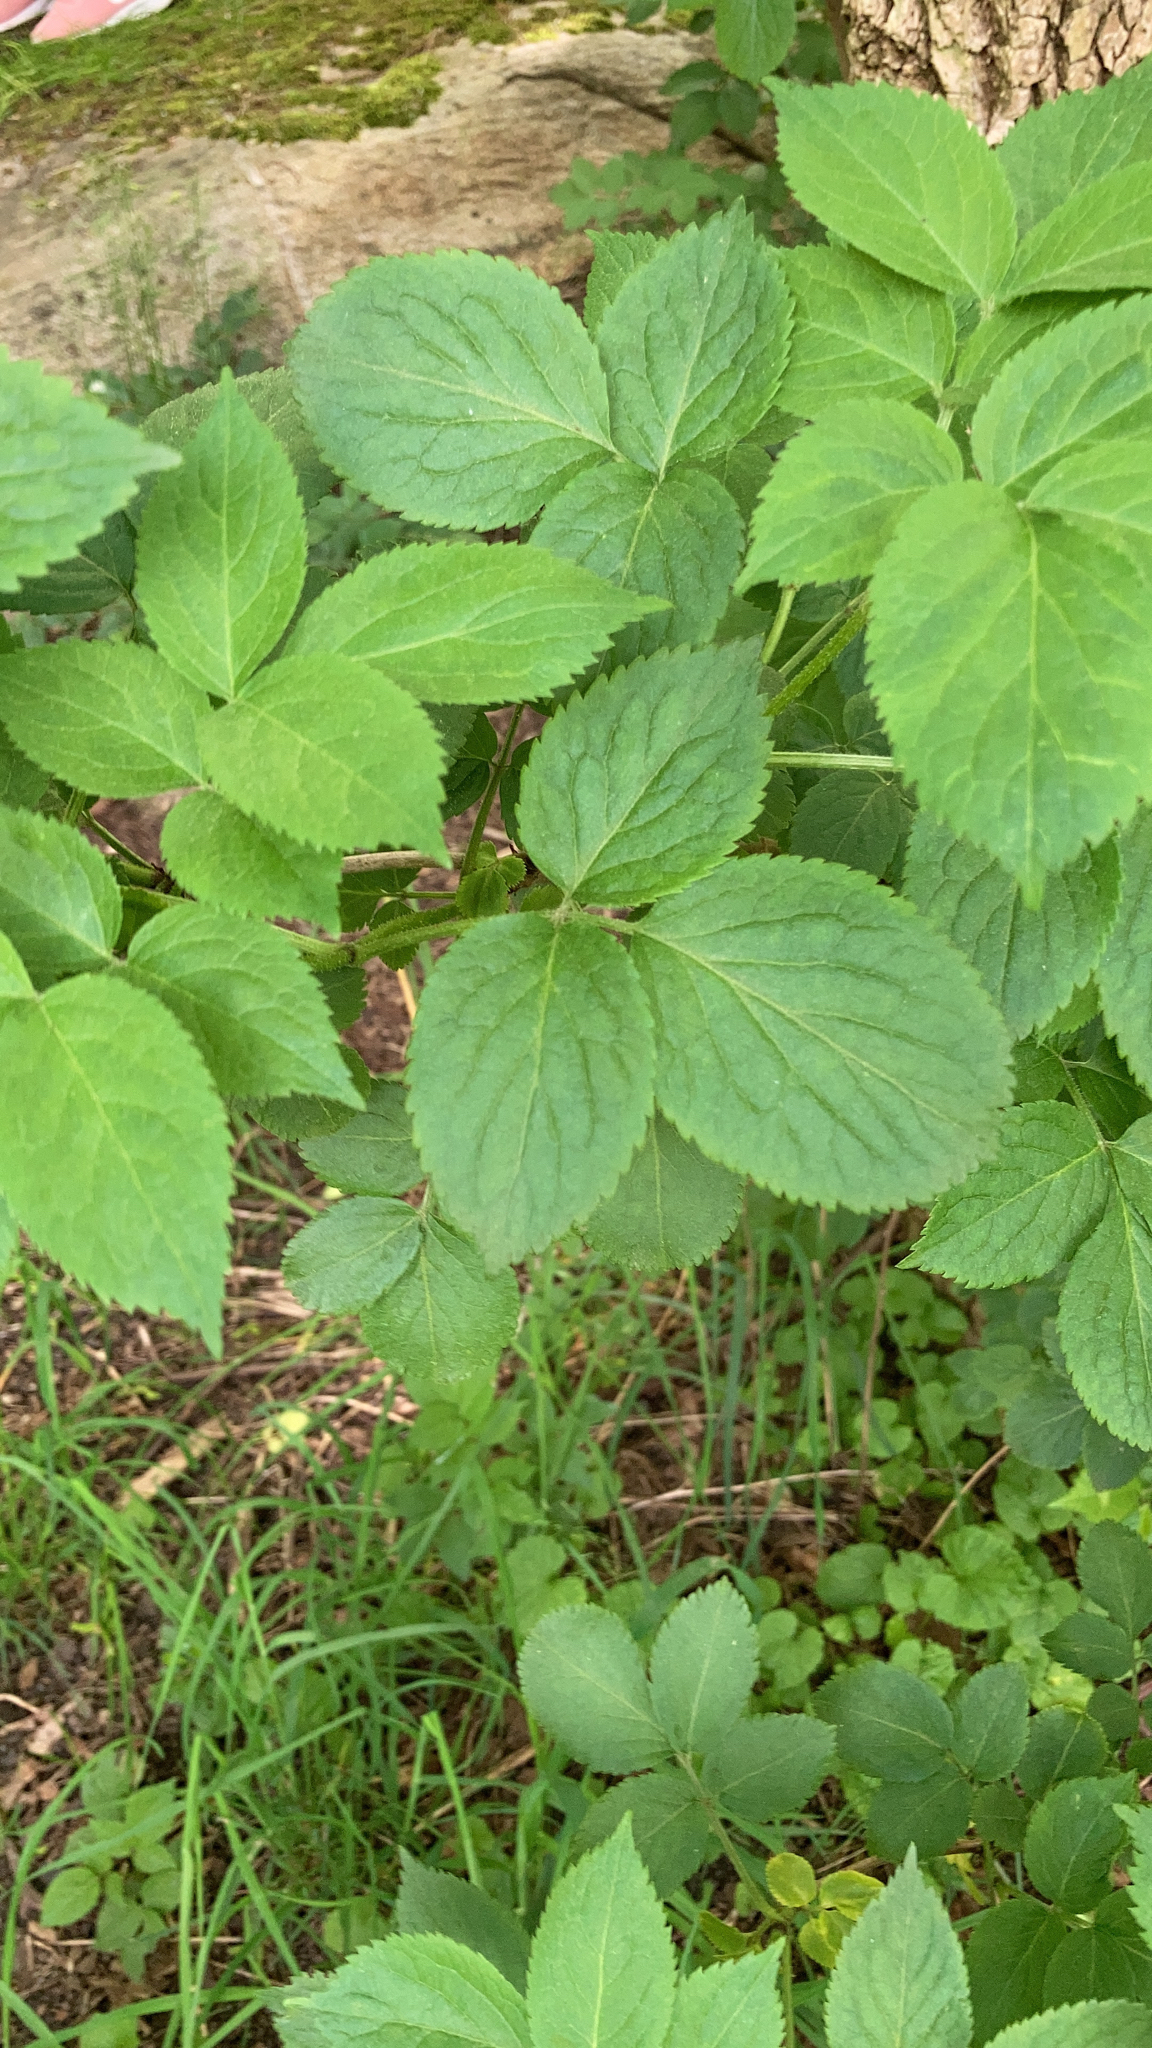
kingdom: Plantae
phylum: Tracheophyta
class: Magnoliopsida
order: Dipsacales
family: Viburnaceae
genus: Sambucus
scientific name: Sambucus nigra
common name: Elder
